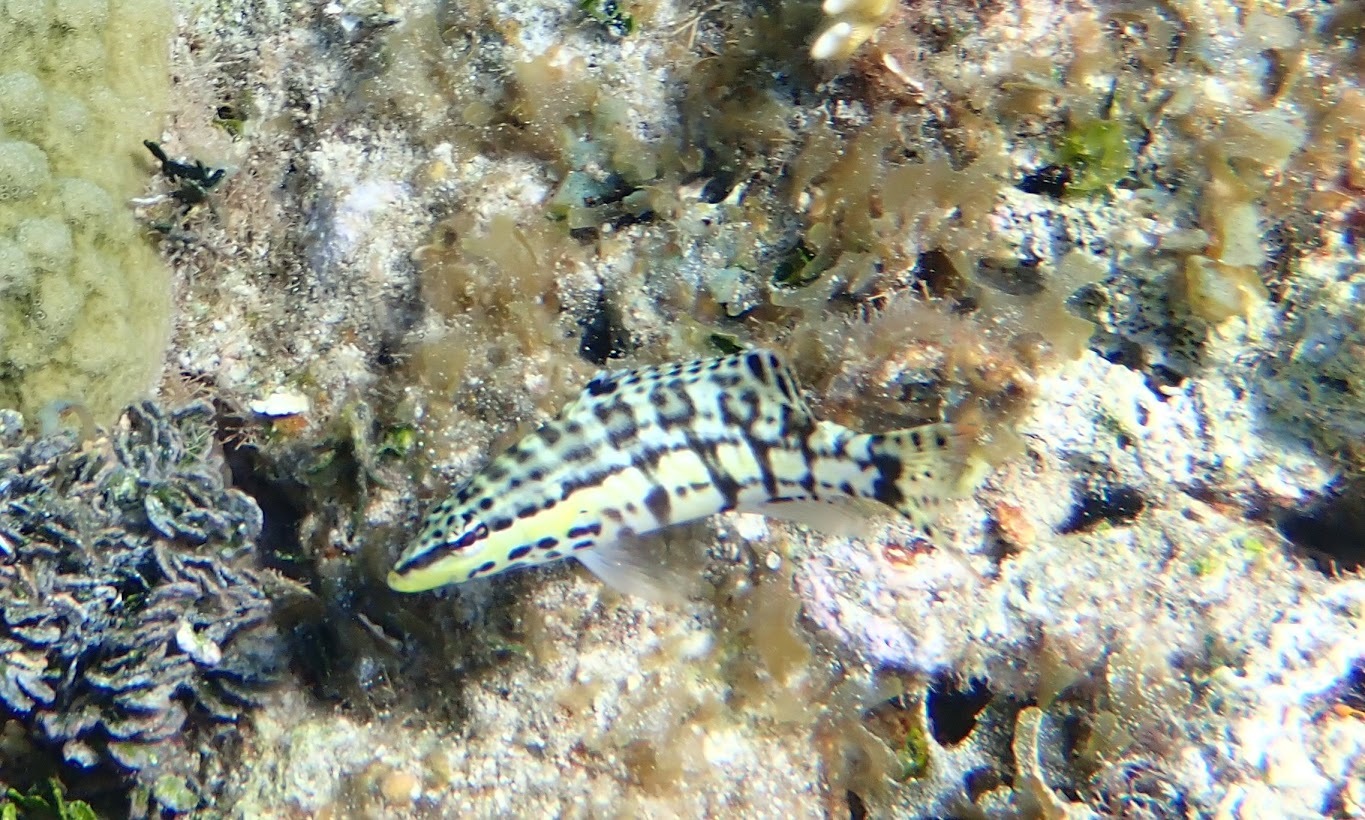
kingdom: Animalia
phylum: Chordata
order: Perciformes
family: Serranidae
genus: Serranus
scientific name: Serranus tigrinus
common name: Harlequin bass
